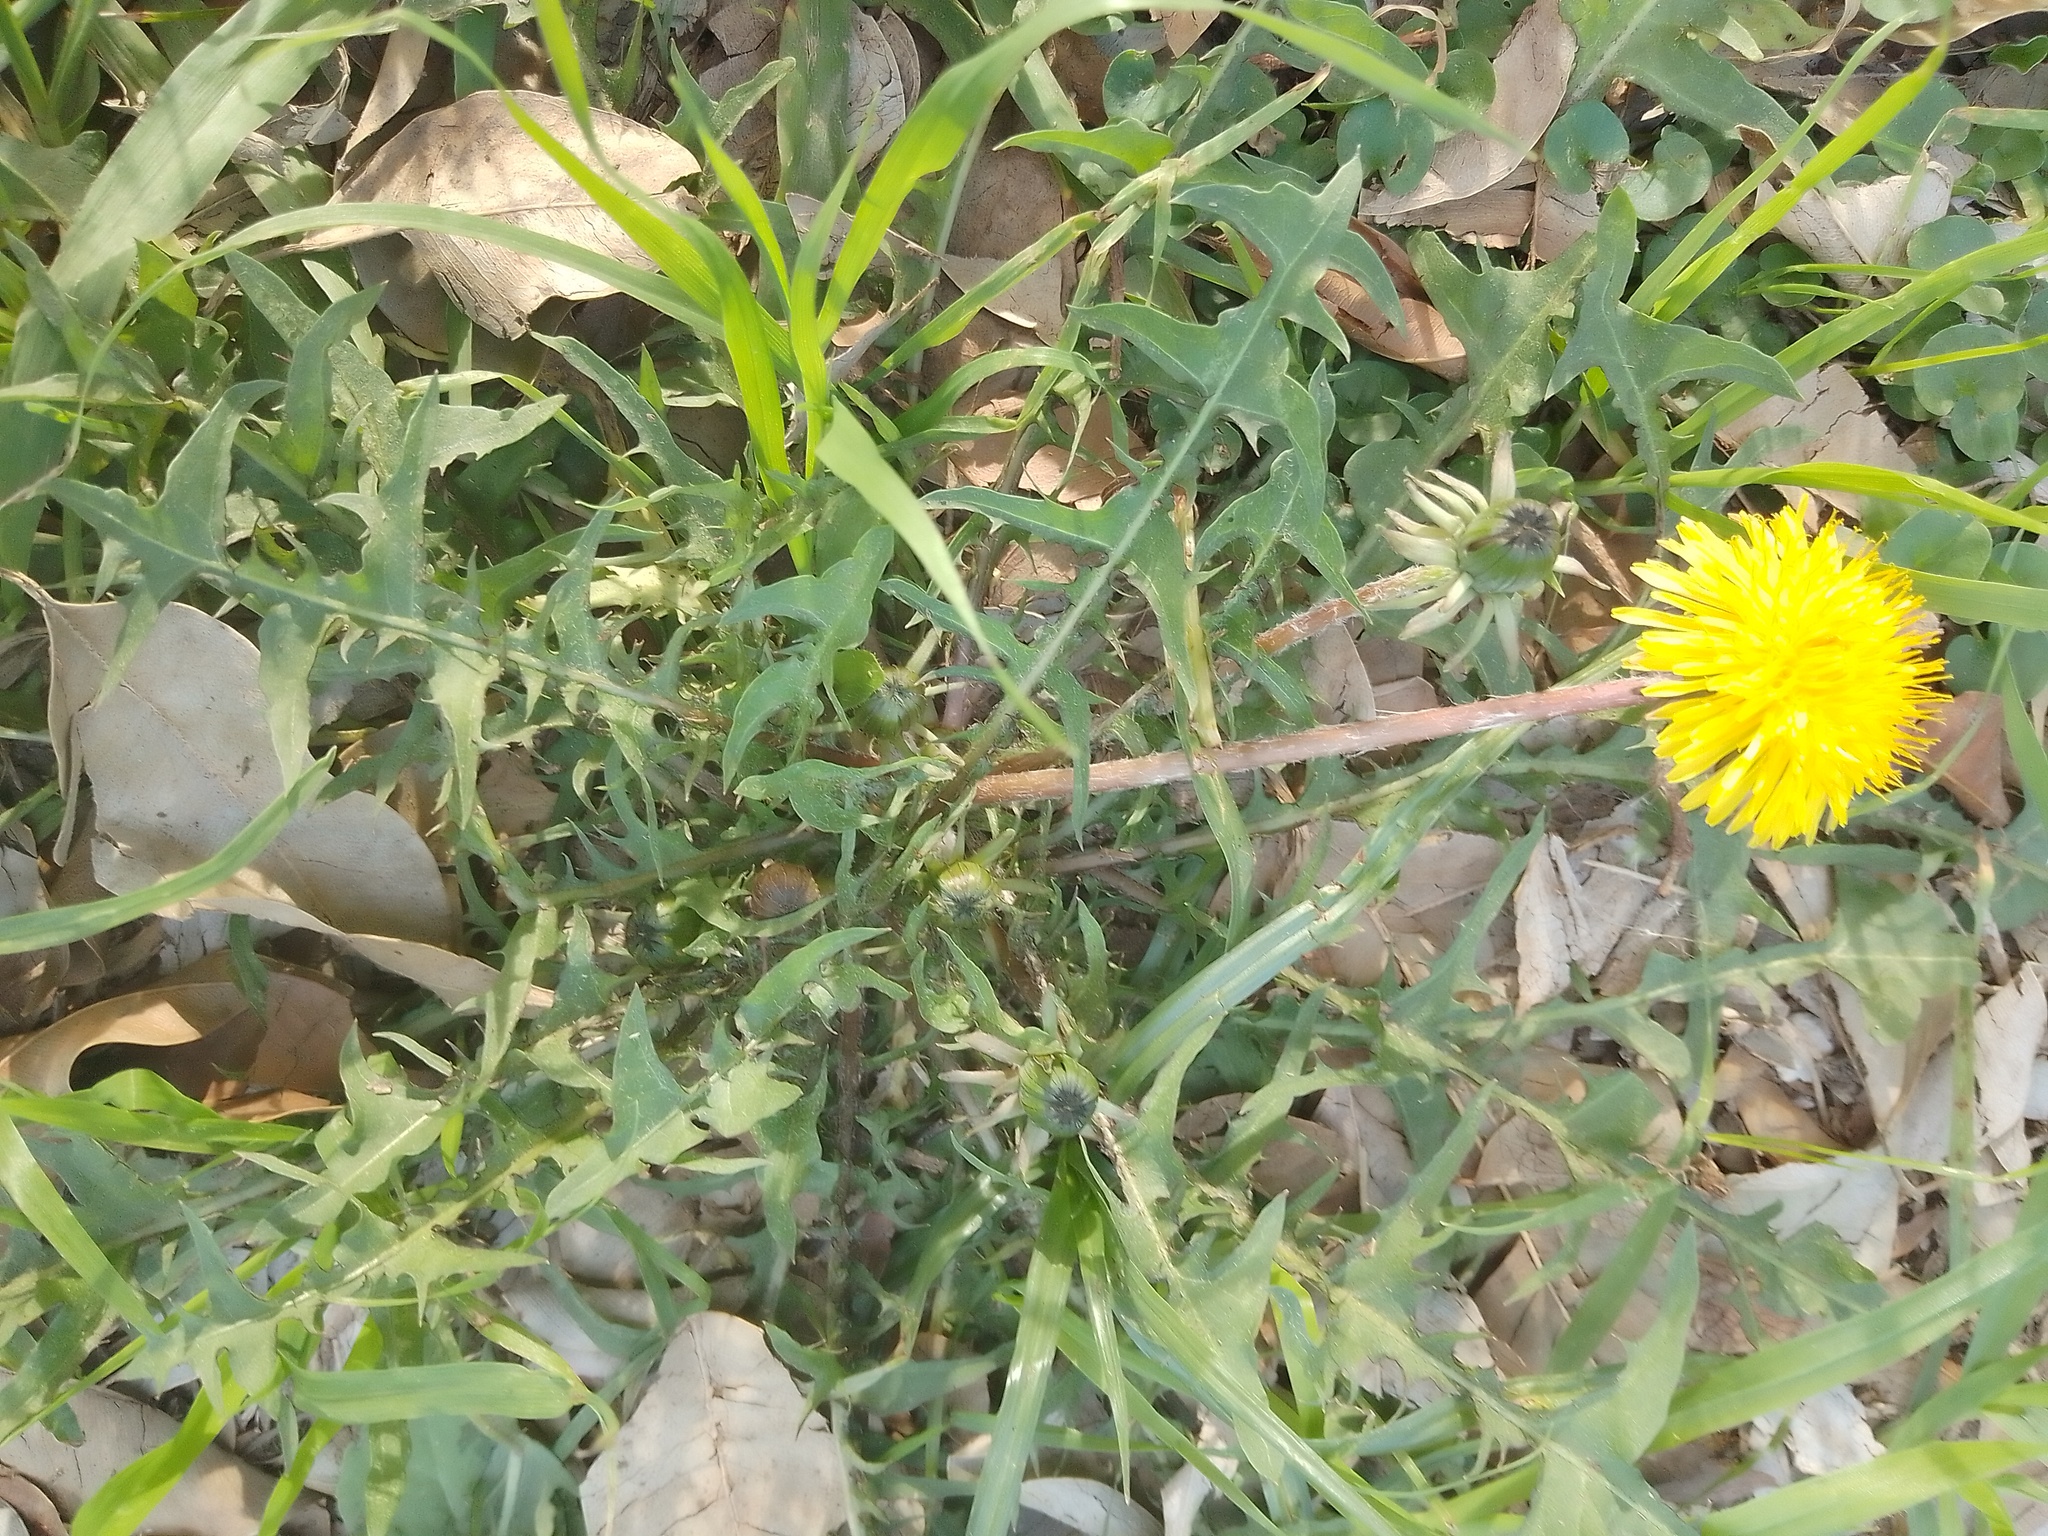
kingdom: Plantae
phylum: Tracheophyta
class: Magnoliopsida
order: Asterales
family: Asteraceae
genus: Taraxacum
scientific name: Taraxacum officinale
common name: Common dandelion
